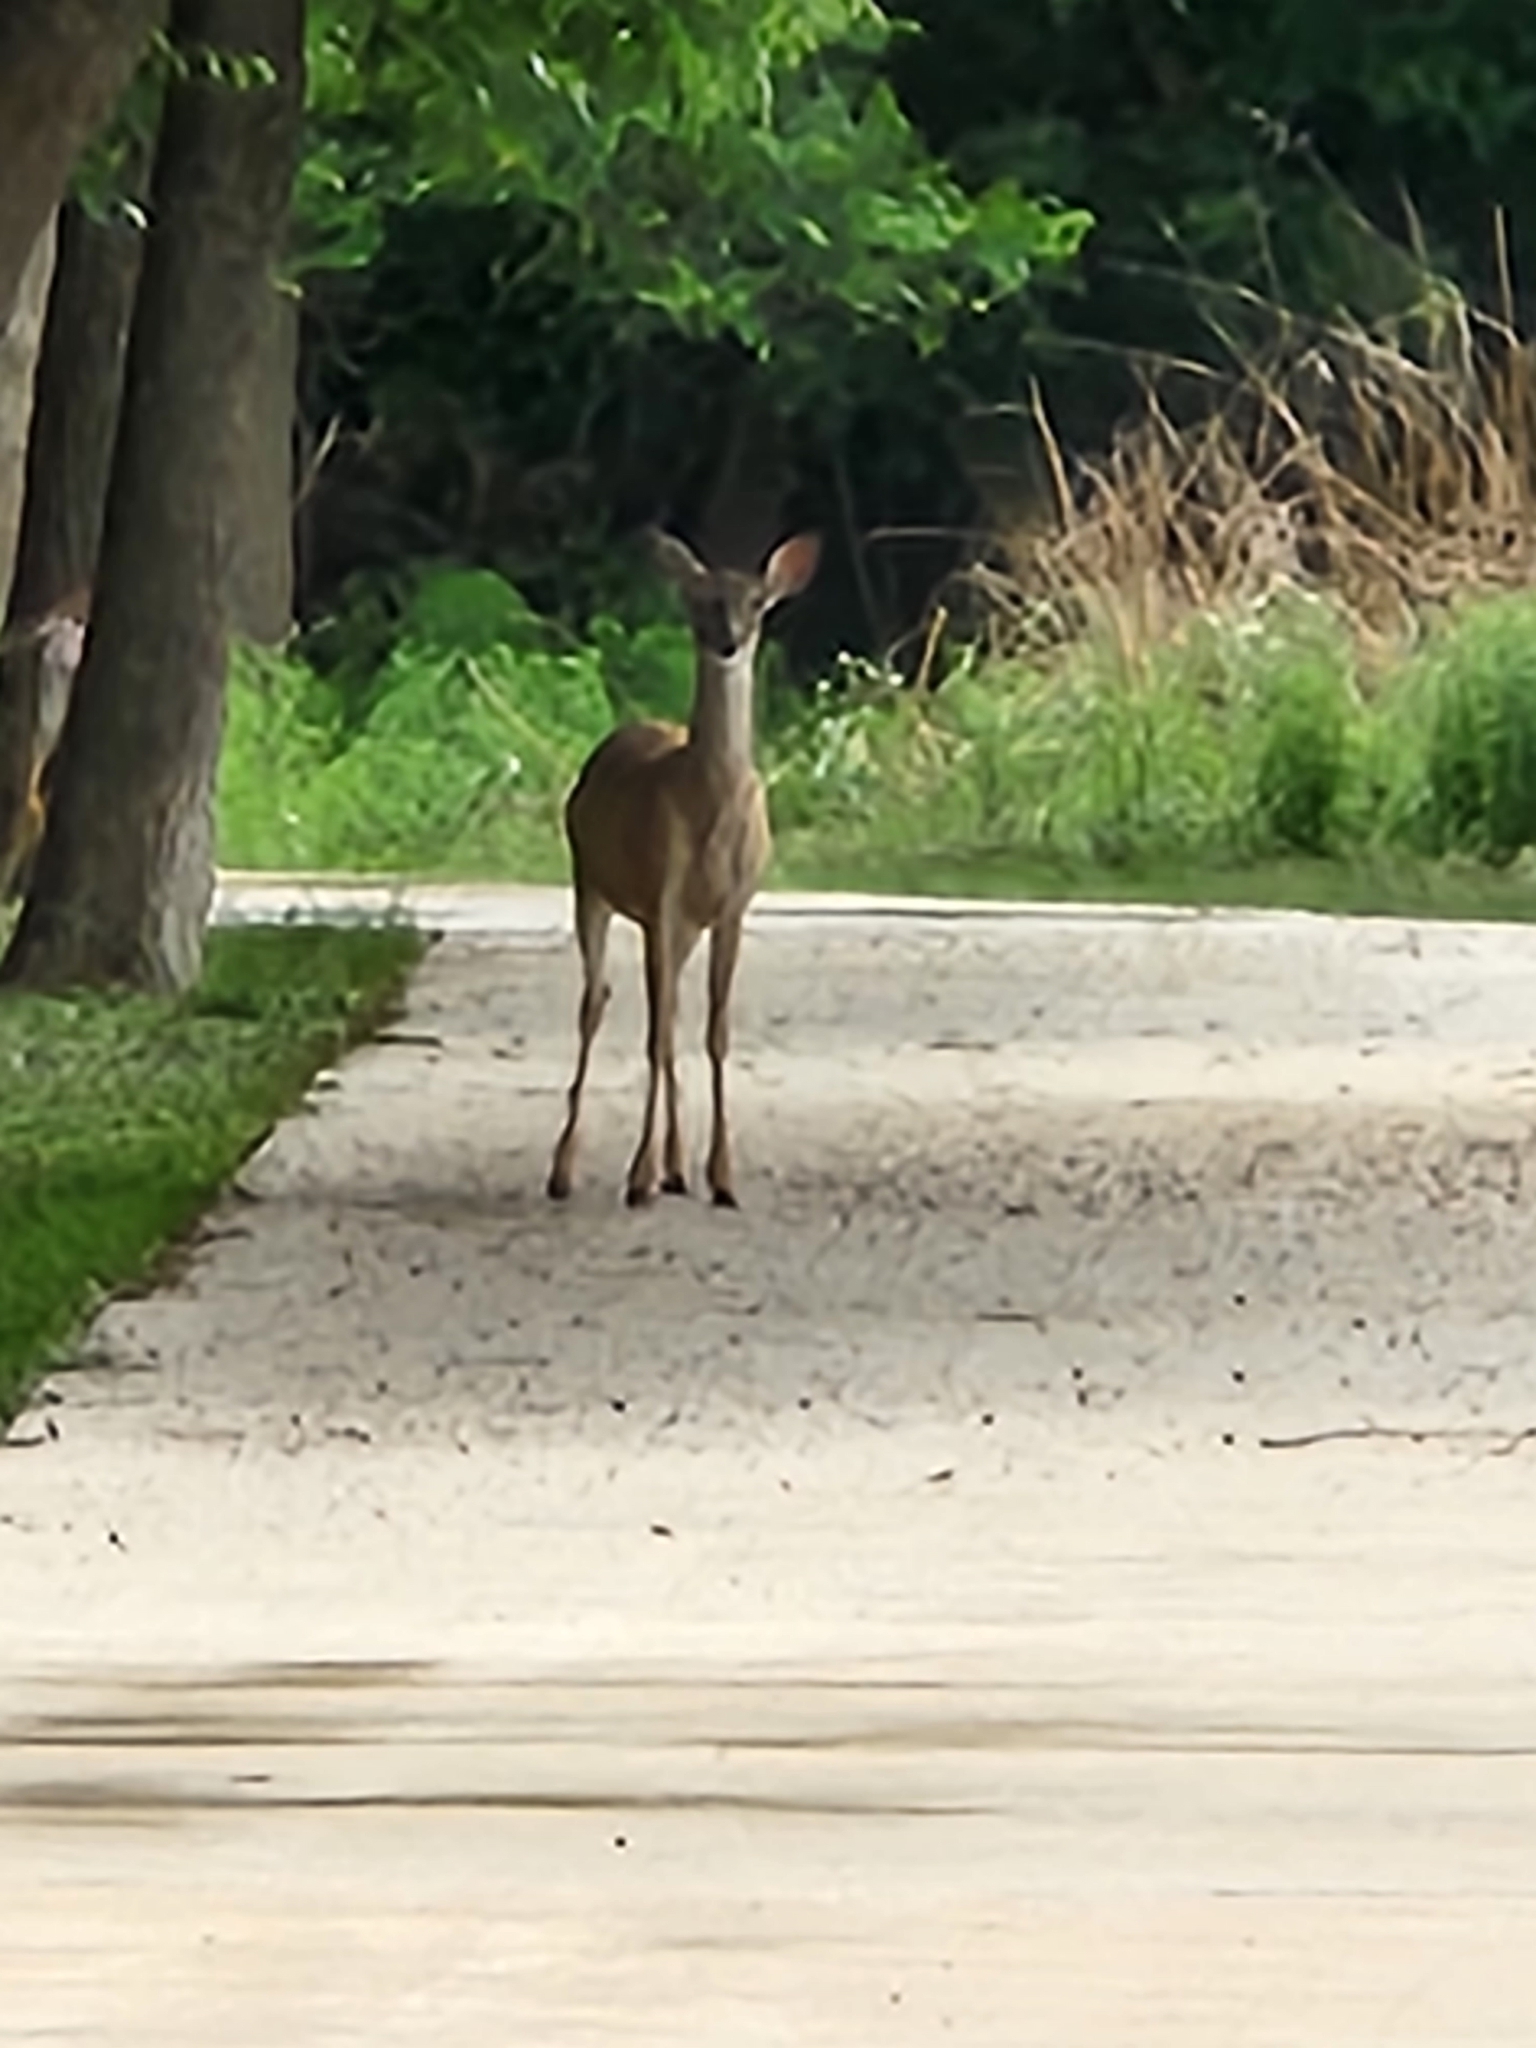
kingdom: Animalia
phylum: Chordata
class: Mammalia
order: Artiodactyla
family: Cervidae
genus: Odocoileus
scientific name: Odocoileus virginianus
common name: White-tailed deer
